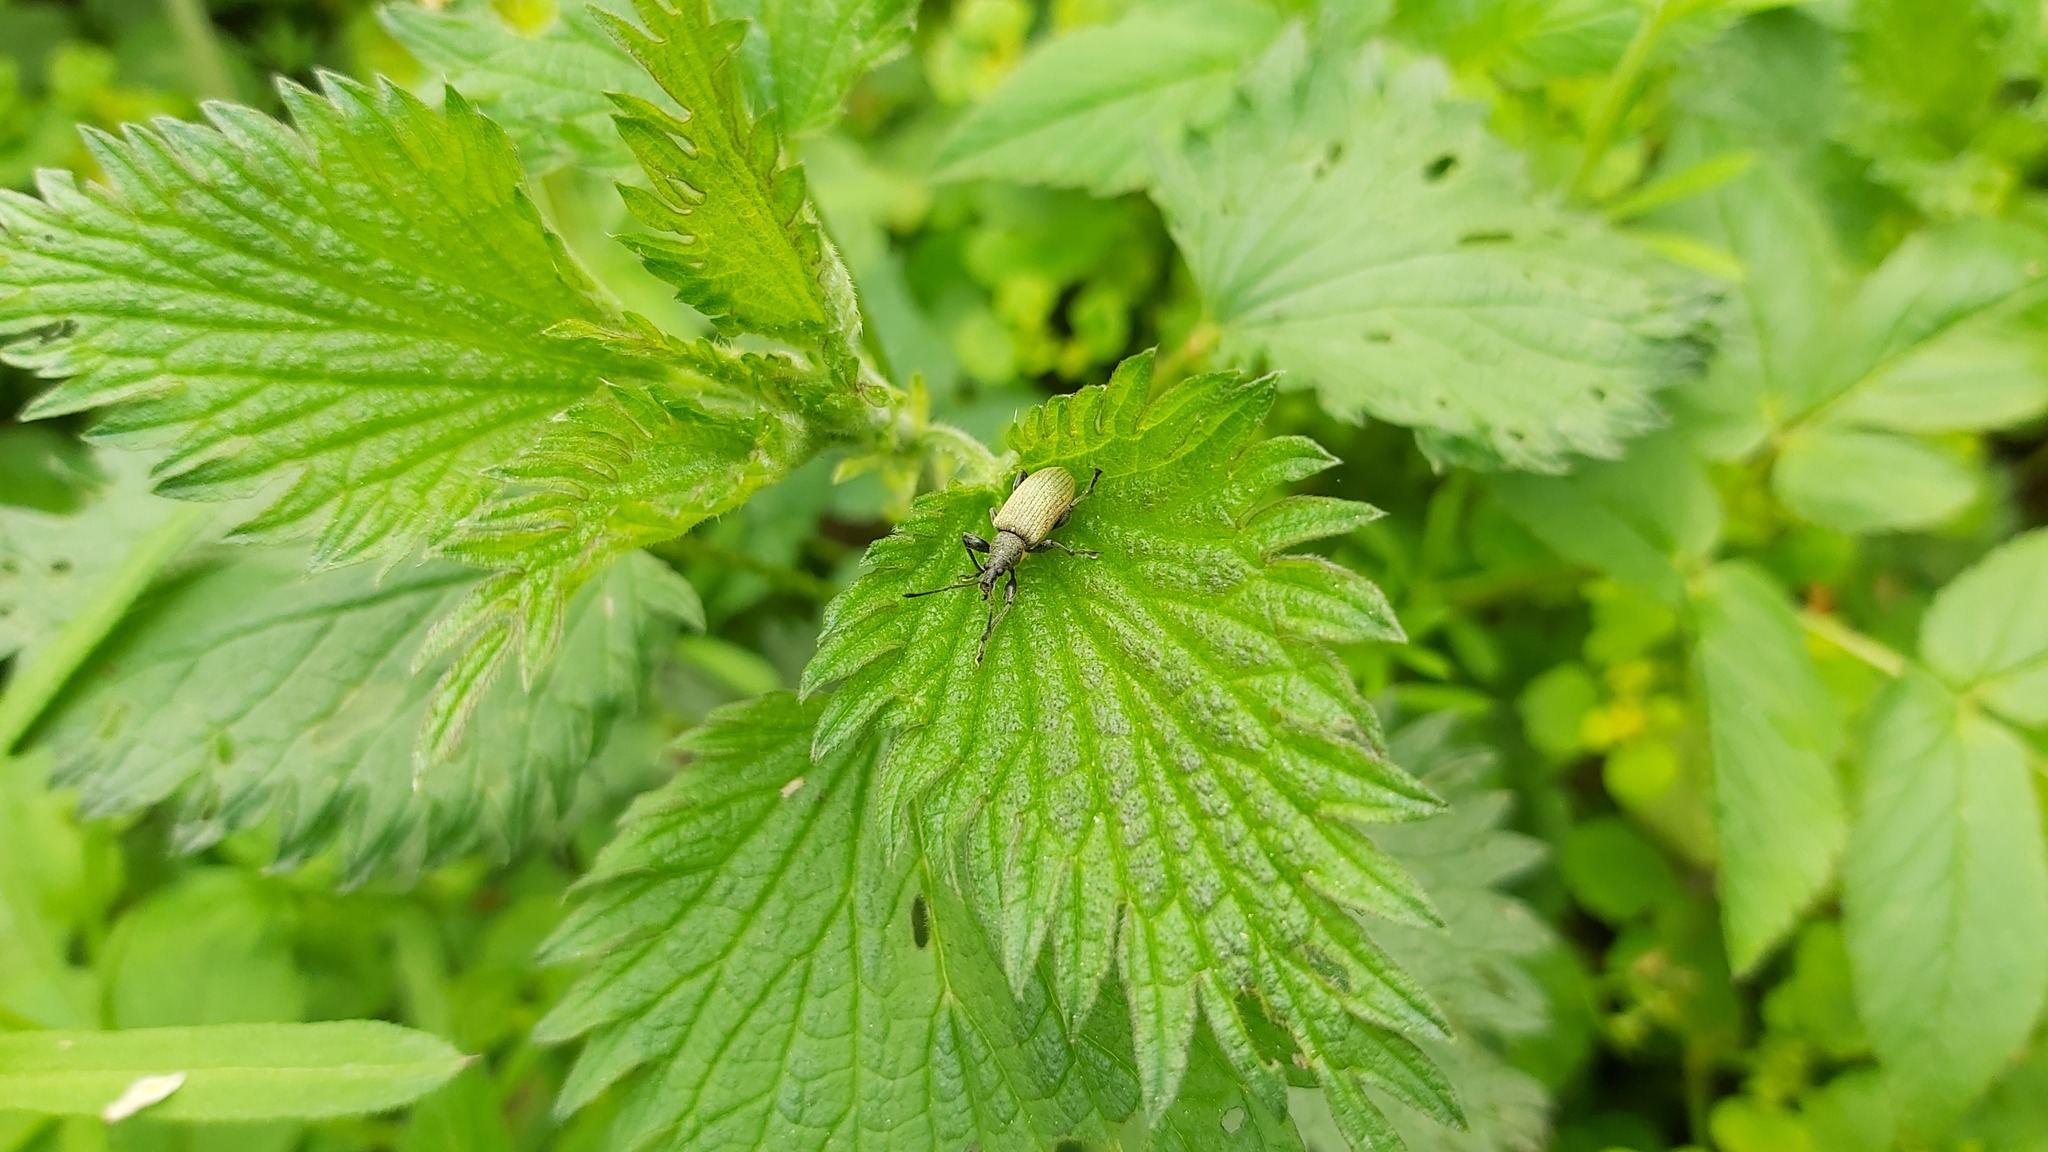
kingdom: Animalia
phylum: Arthropoda
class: Insecta
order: Coleoptera
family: Curculionidae
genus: Phyllobius
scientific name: Phyllobius glaucus
